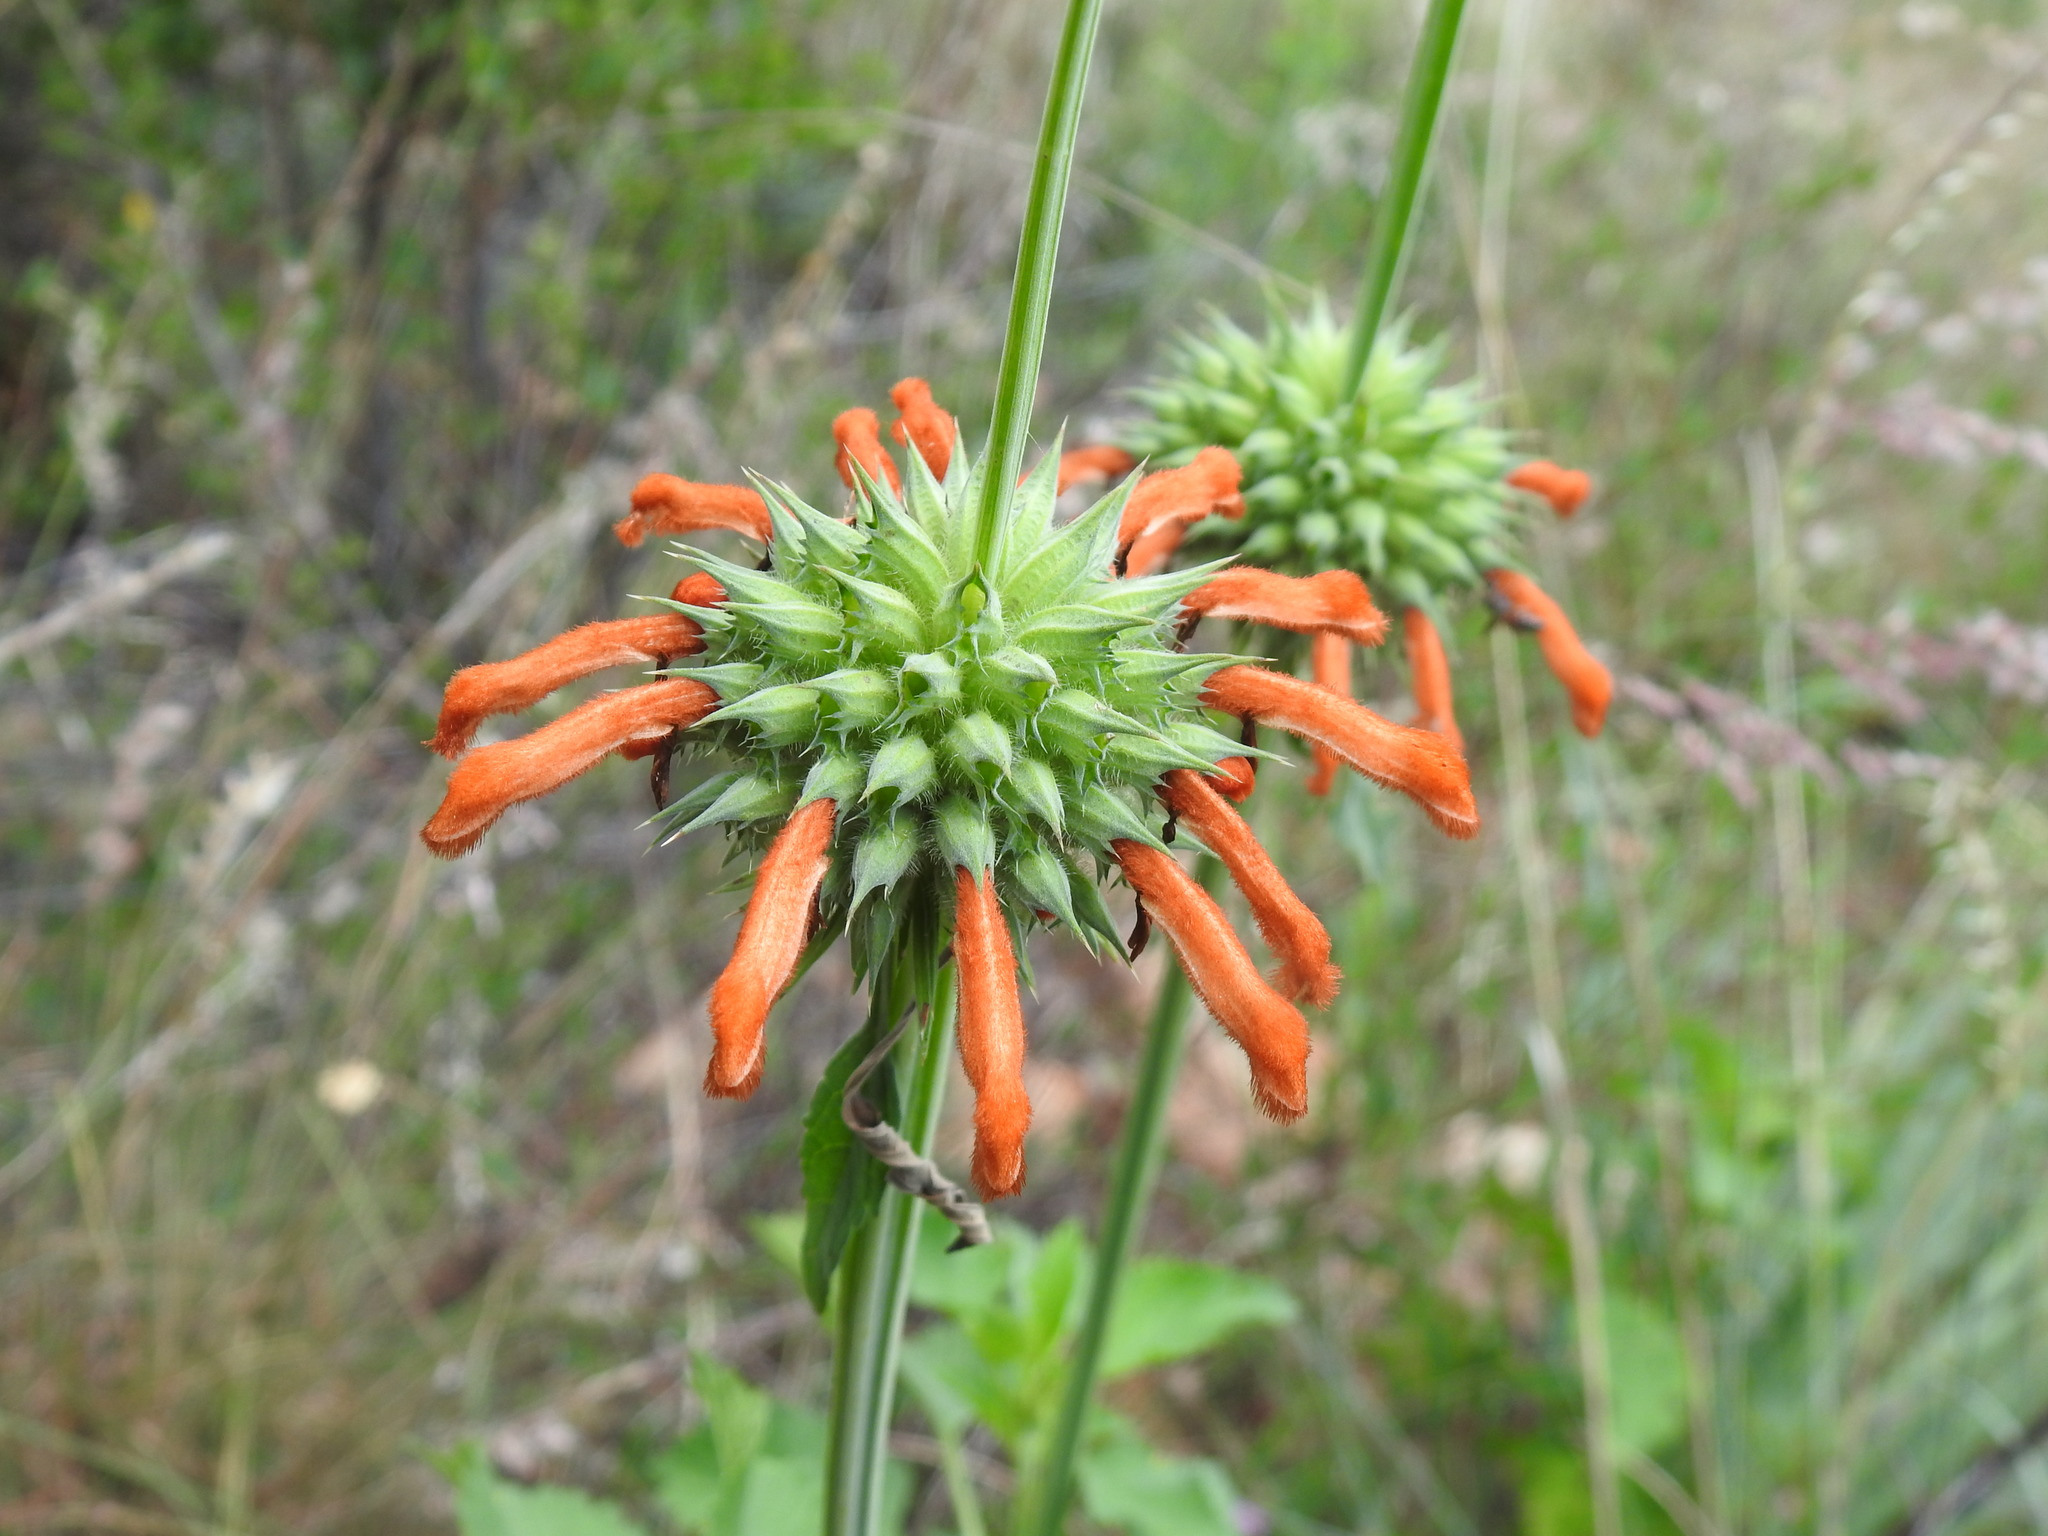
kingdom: Plantae
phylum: Tracheophyta
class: Magnoliopsida
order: Lamiales
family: Lamiaceae
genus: Leonotis
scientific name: Leonotis nepetifolia
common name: Christmas candlestick
